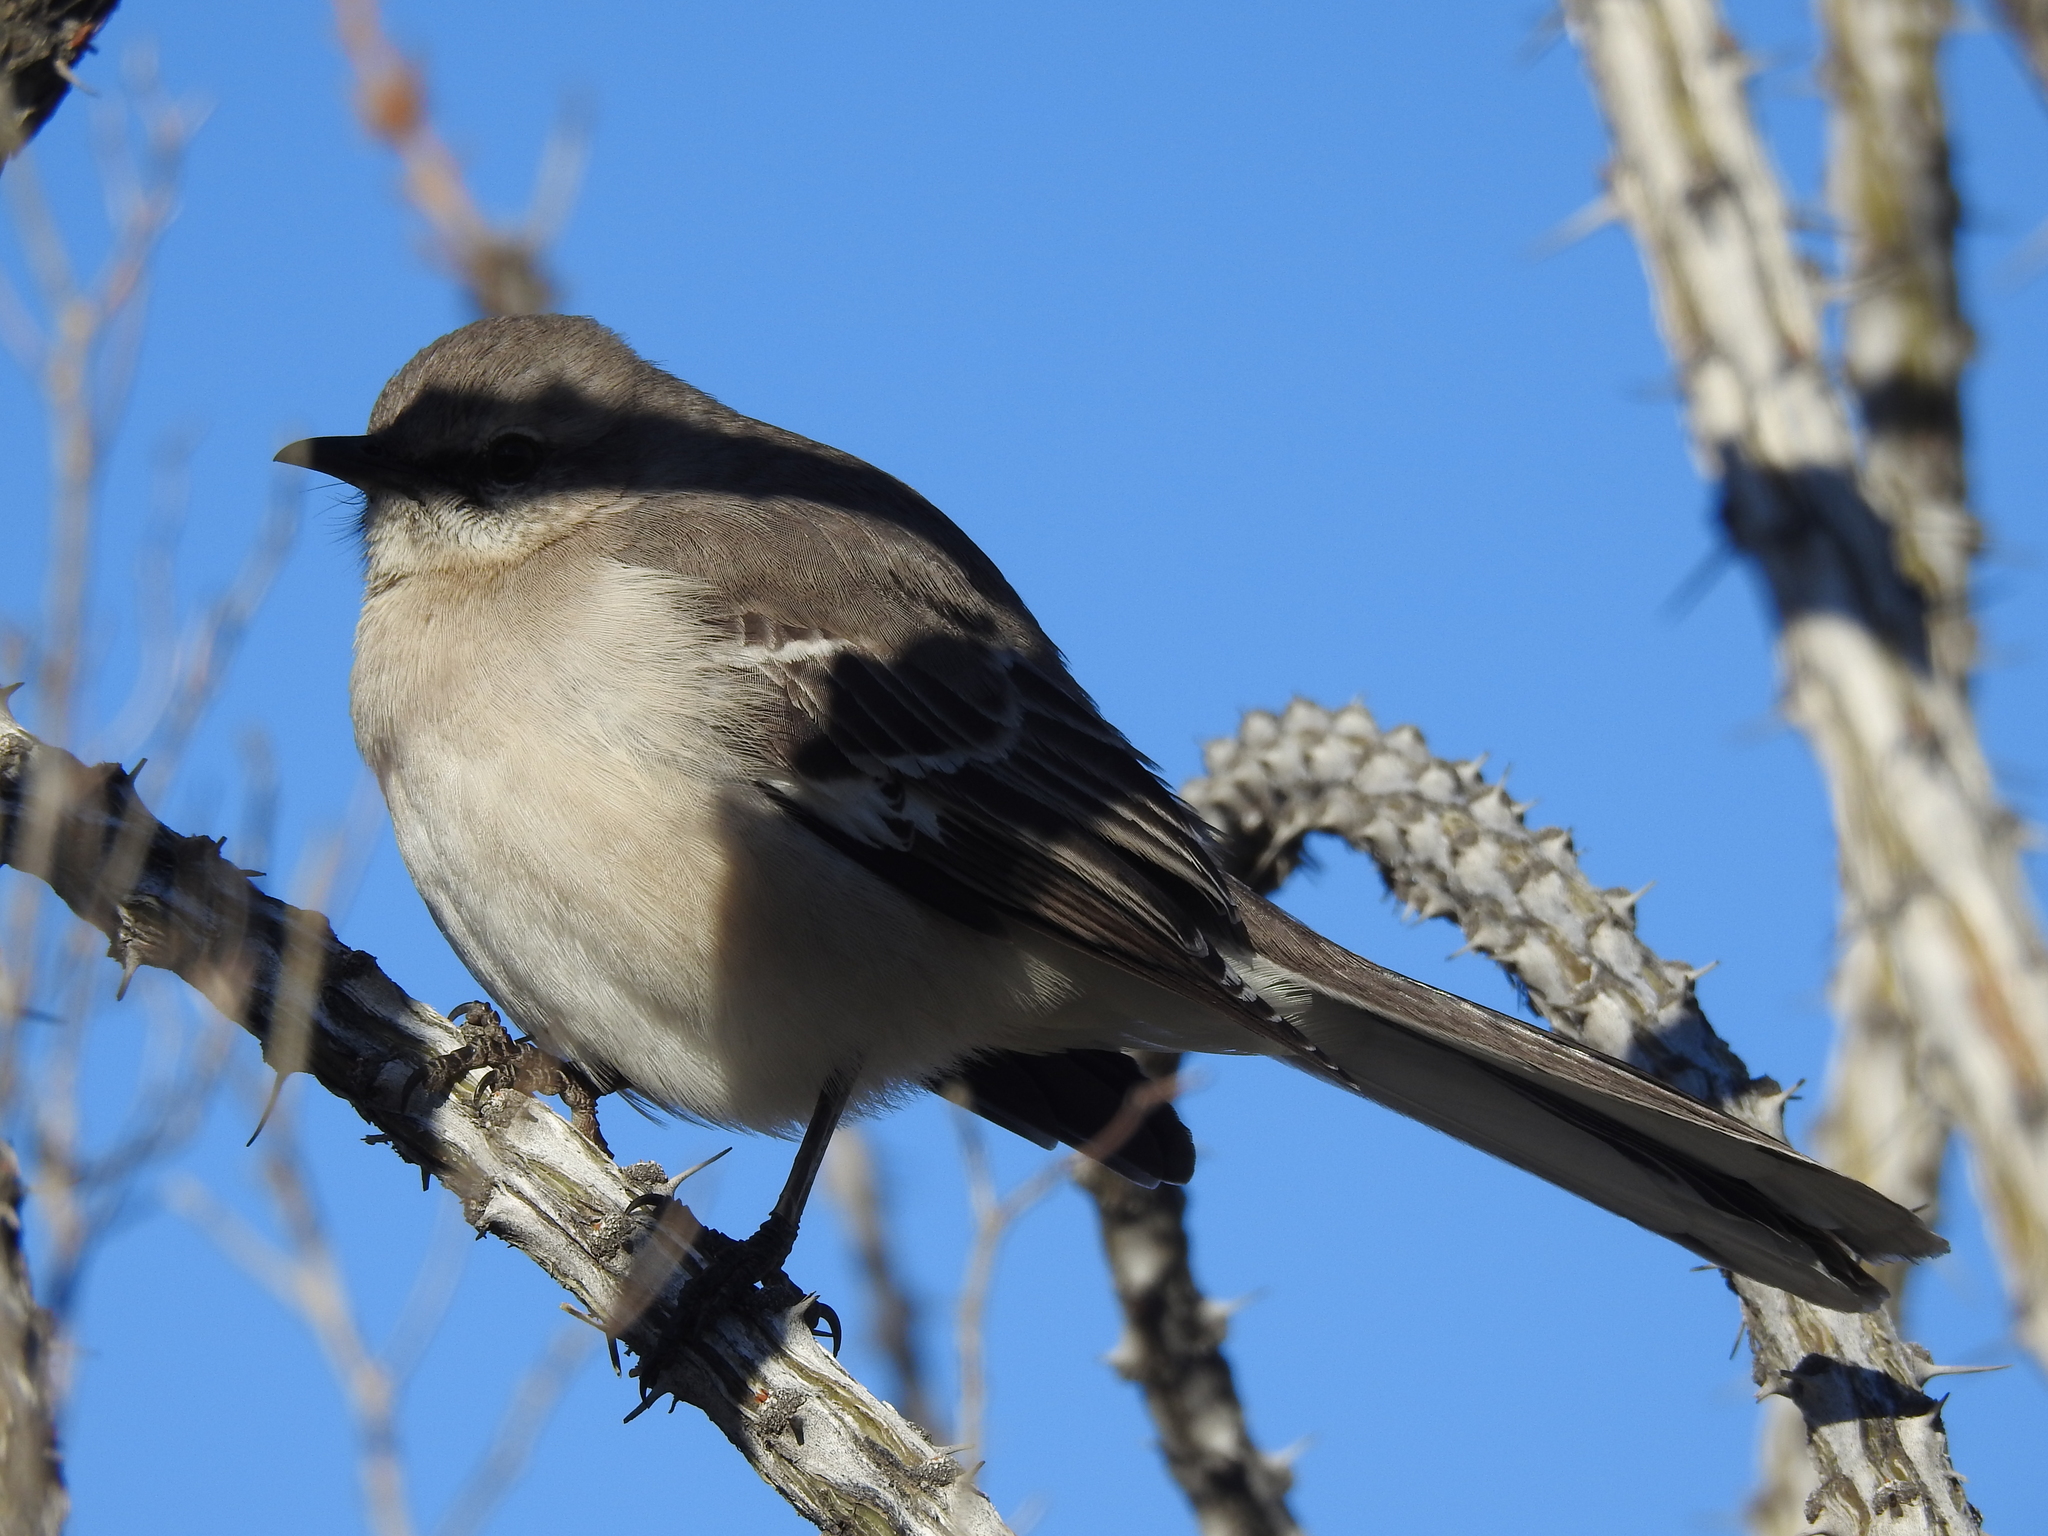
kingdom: Animalia
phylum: Chordata
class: Aves
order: Passeriformes
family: Mimidae
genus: Mimus
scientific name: Mimus polyglottos
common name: Northern mockingbird
